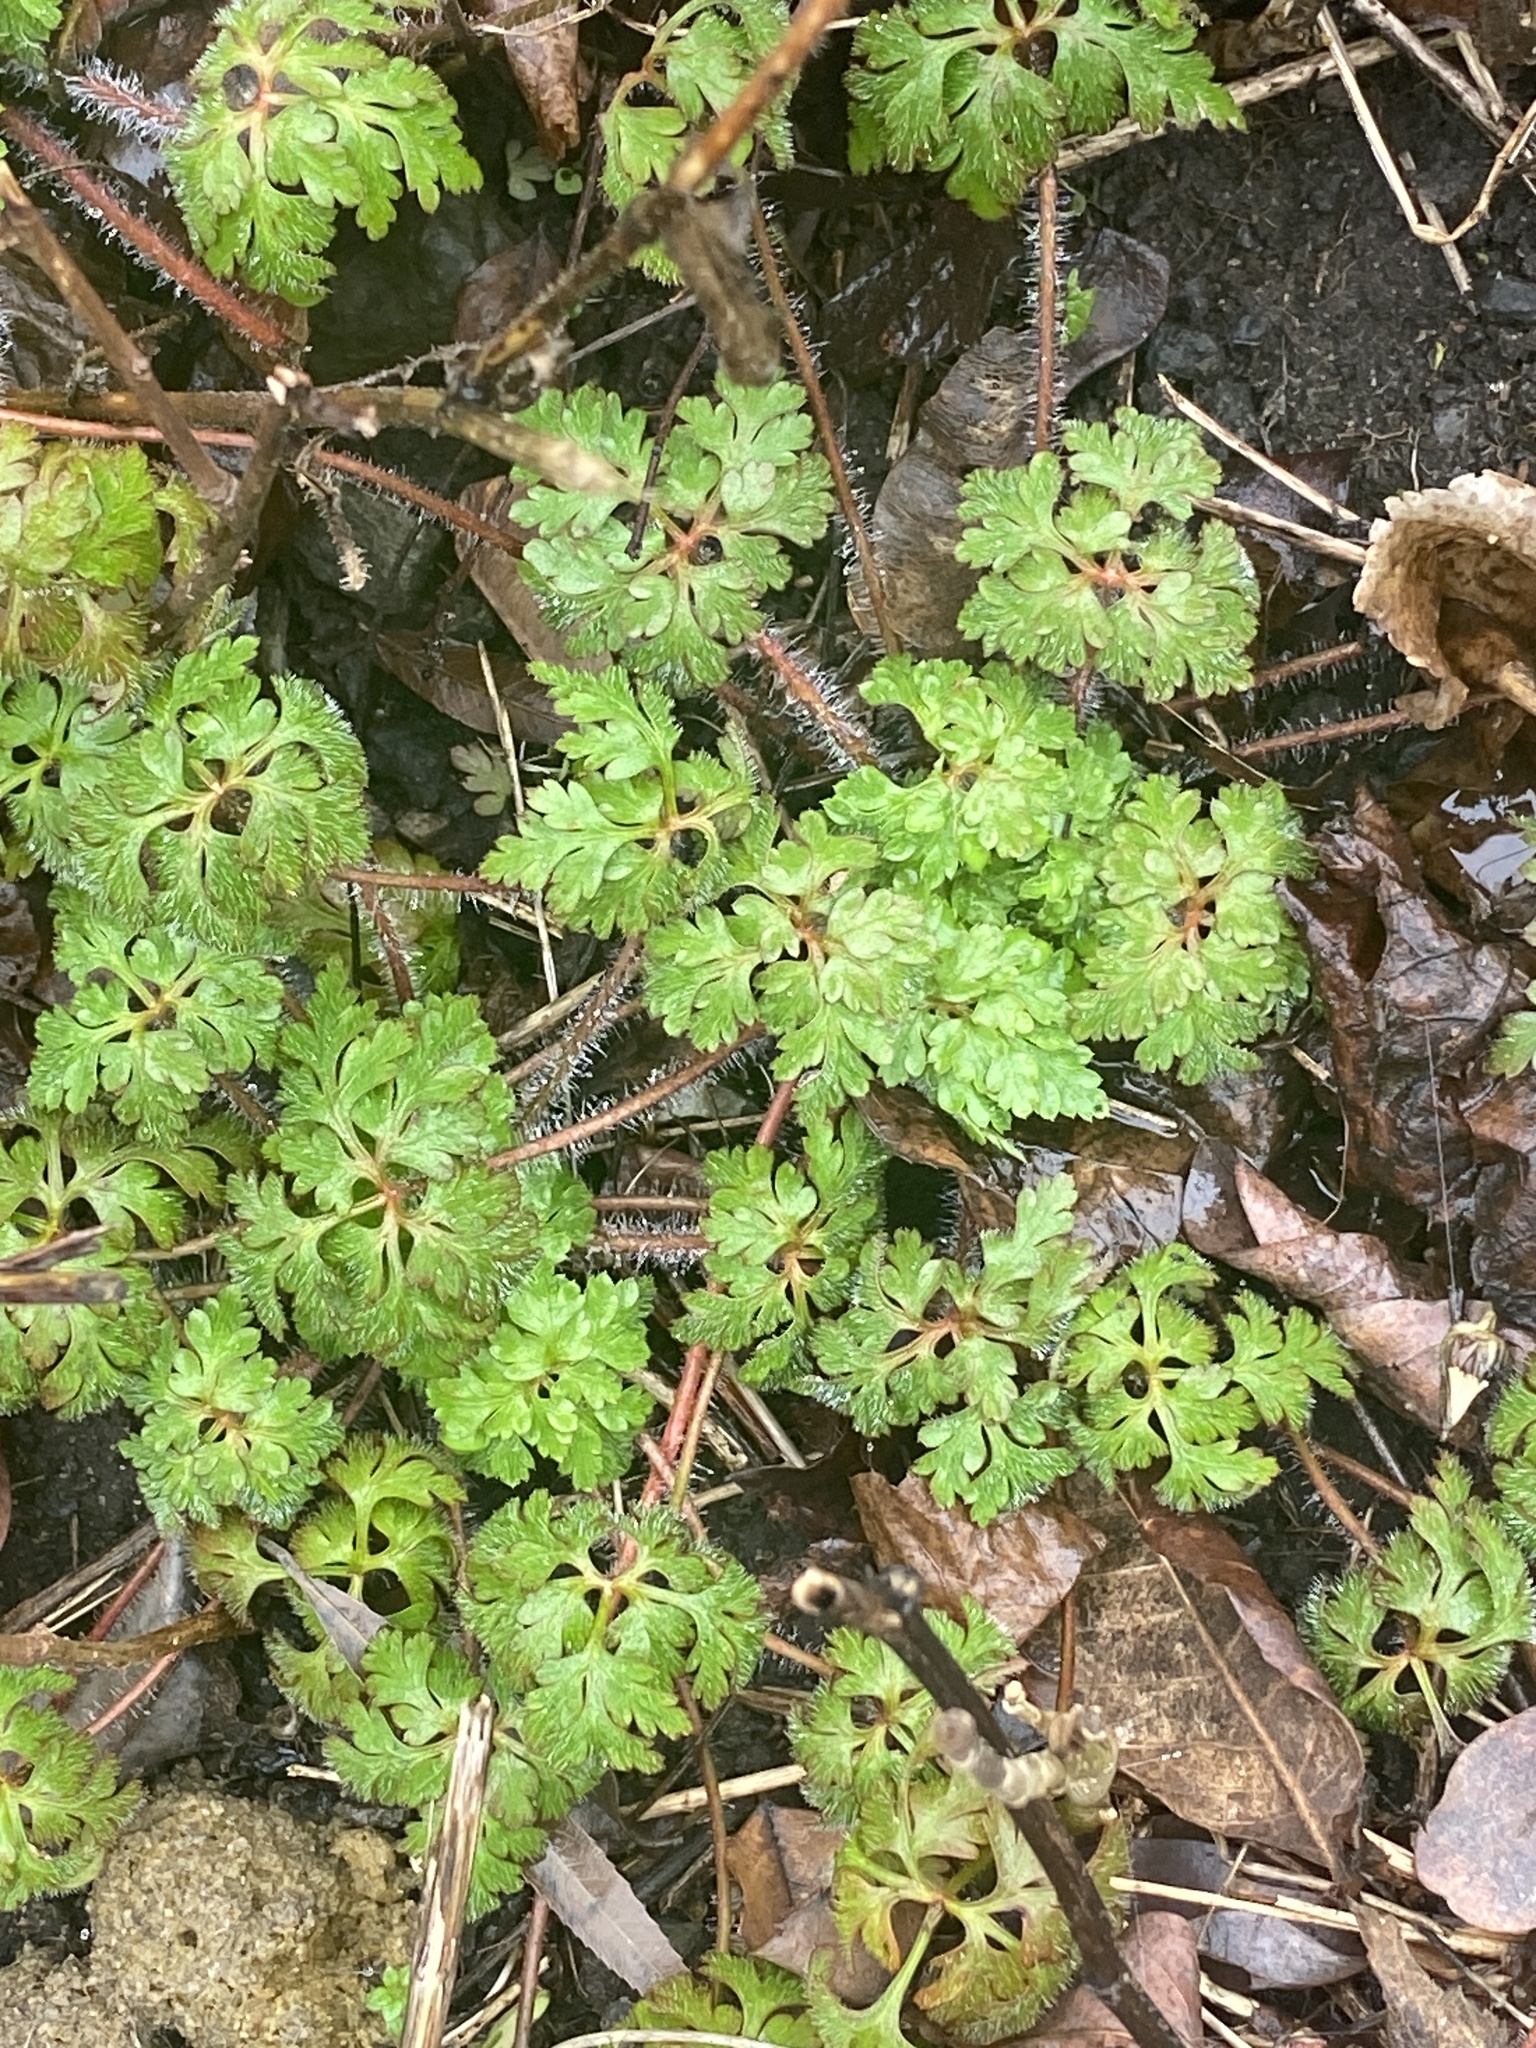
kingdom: Plantae
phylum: Tracheophyta
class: Magnoliopsida
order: Geraniales
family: Geraniaceae
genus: Geranium
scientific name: Geranium robertianum
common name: Herb-robert
